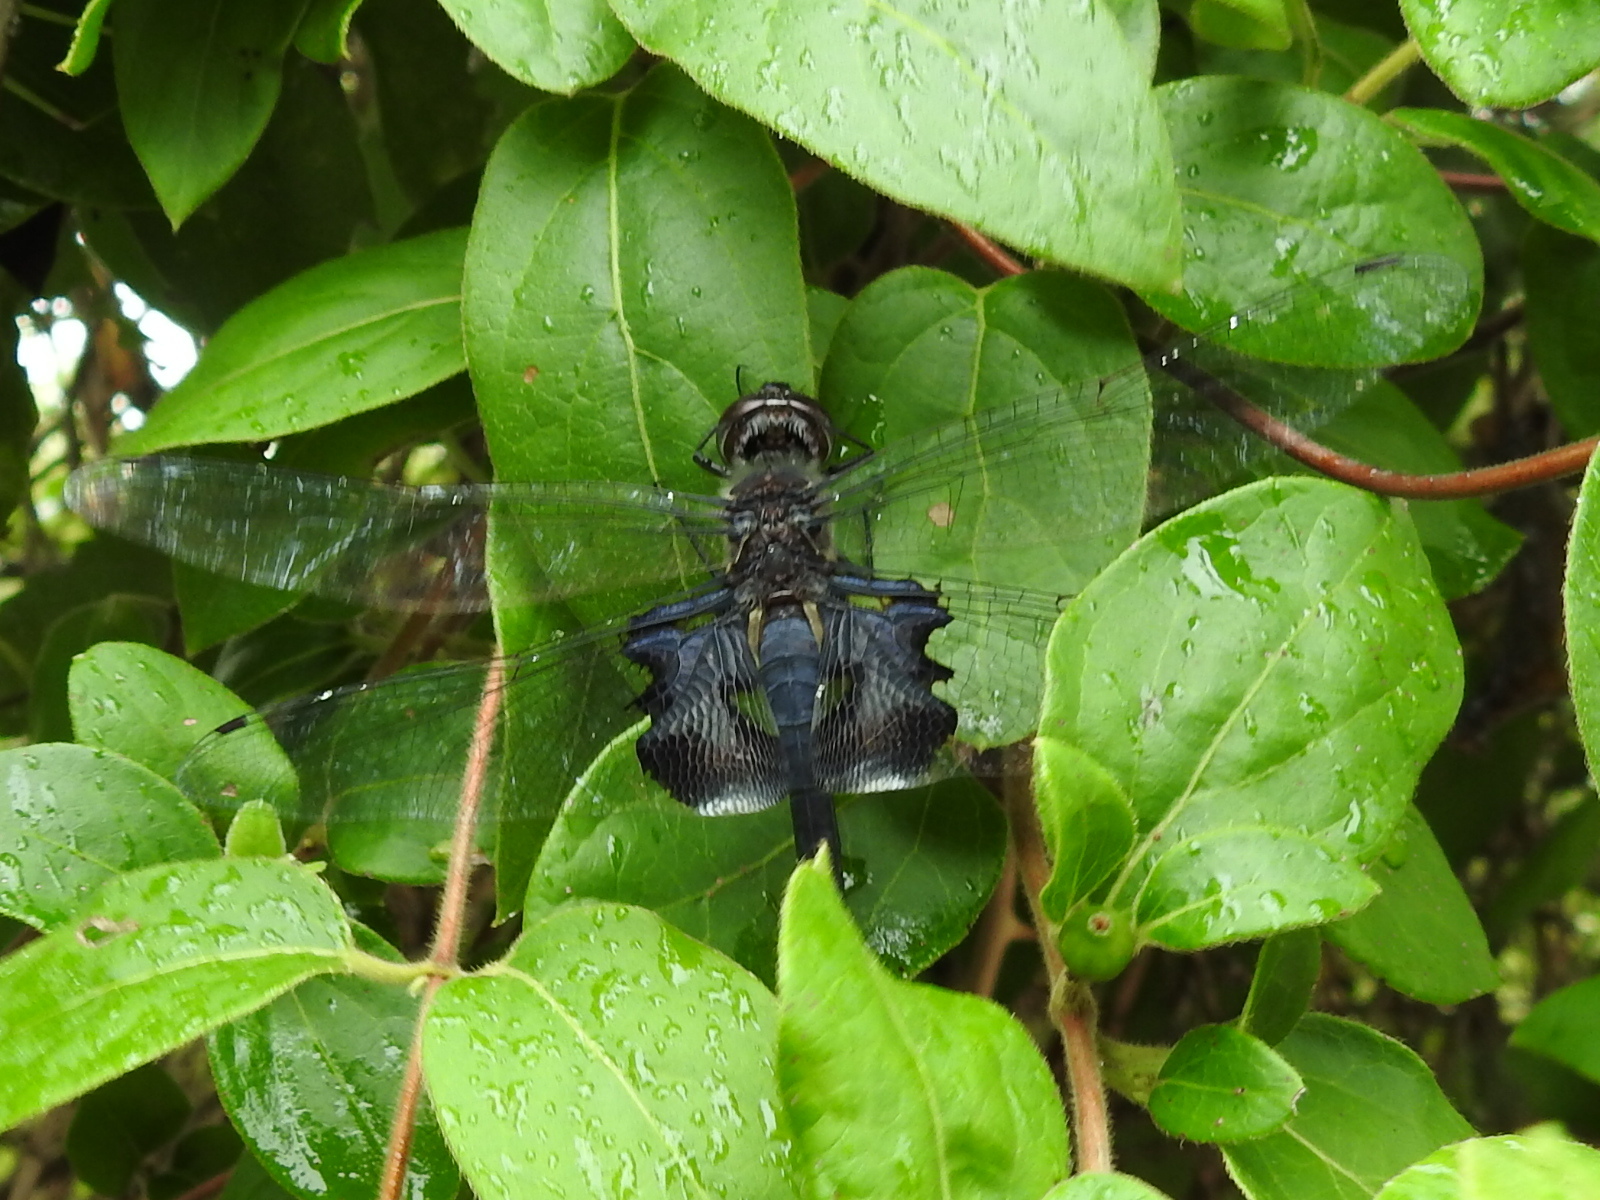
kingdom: Animalia
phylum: Arthropoda
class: Insecta
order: Odonata
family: Libellulidae
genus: Tramea
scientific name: Tramea lacerata
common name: Black saddlebags
